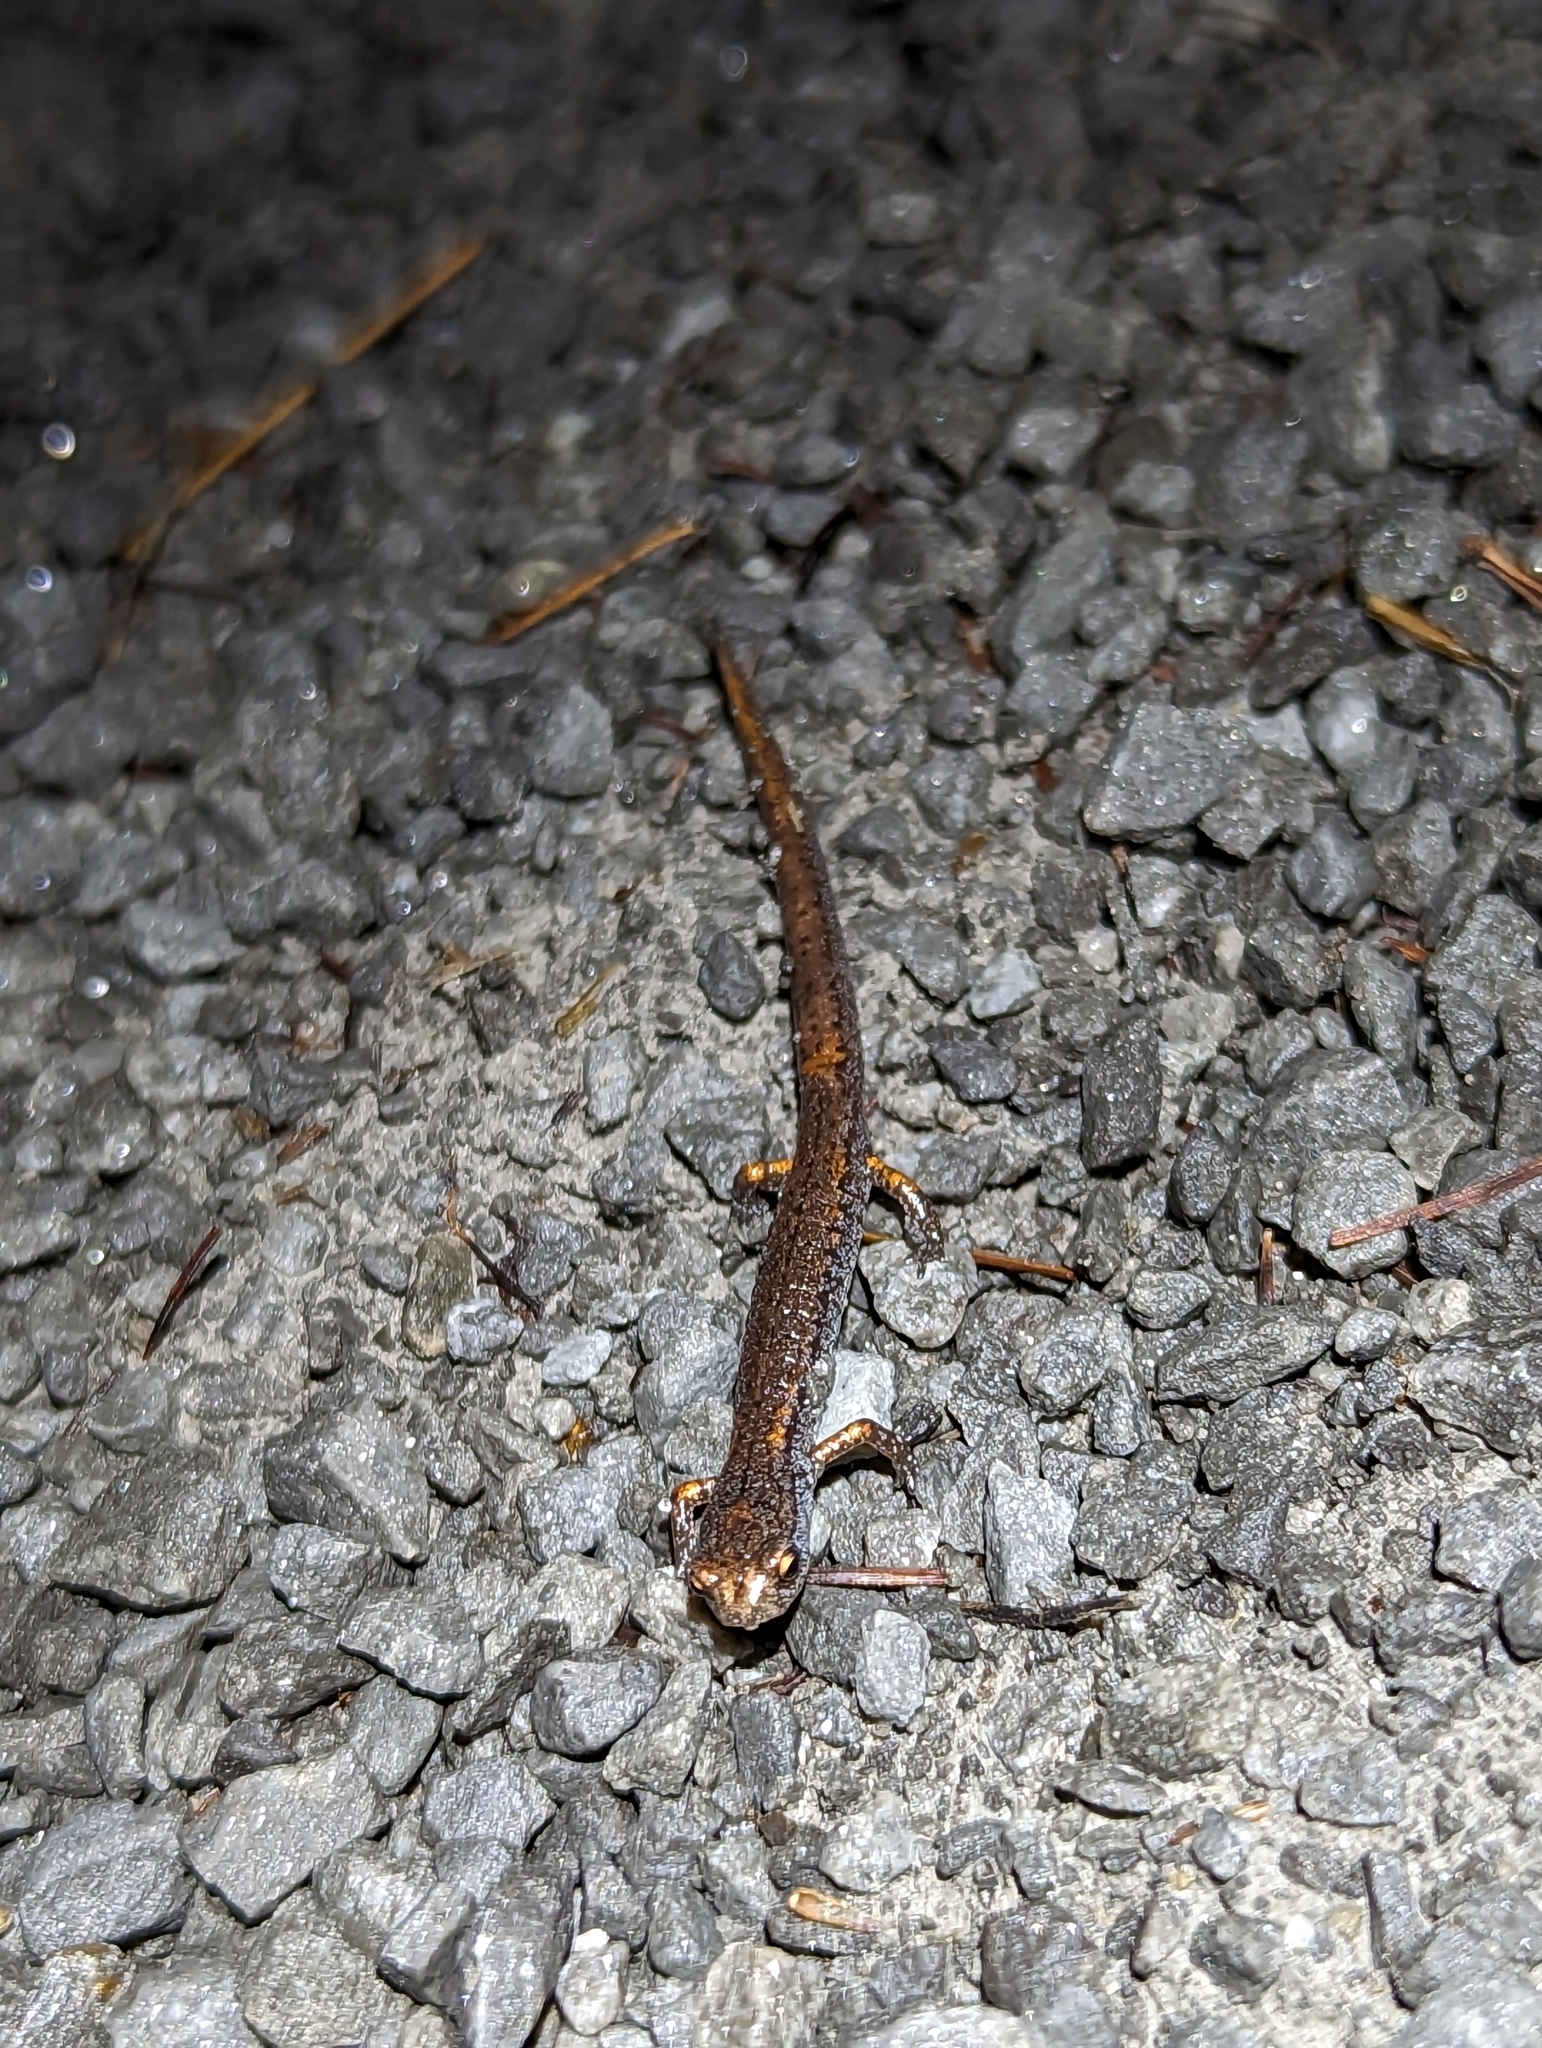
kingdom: Animalia
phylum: Chordata
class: Amphibia
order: Caudata
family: Plethodontidae
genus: Hemidactylium
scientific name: Hemidactylium scutatum
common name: Four-toed salamander
